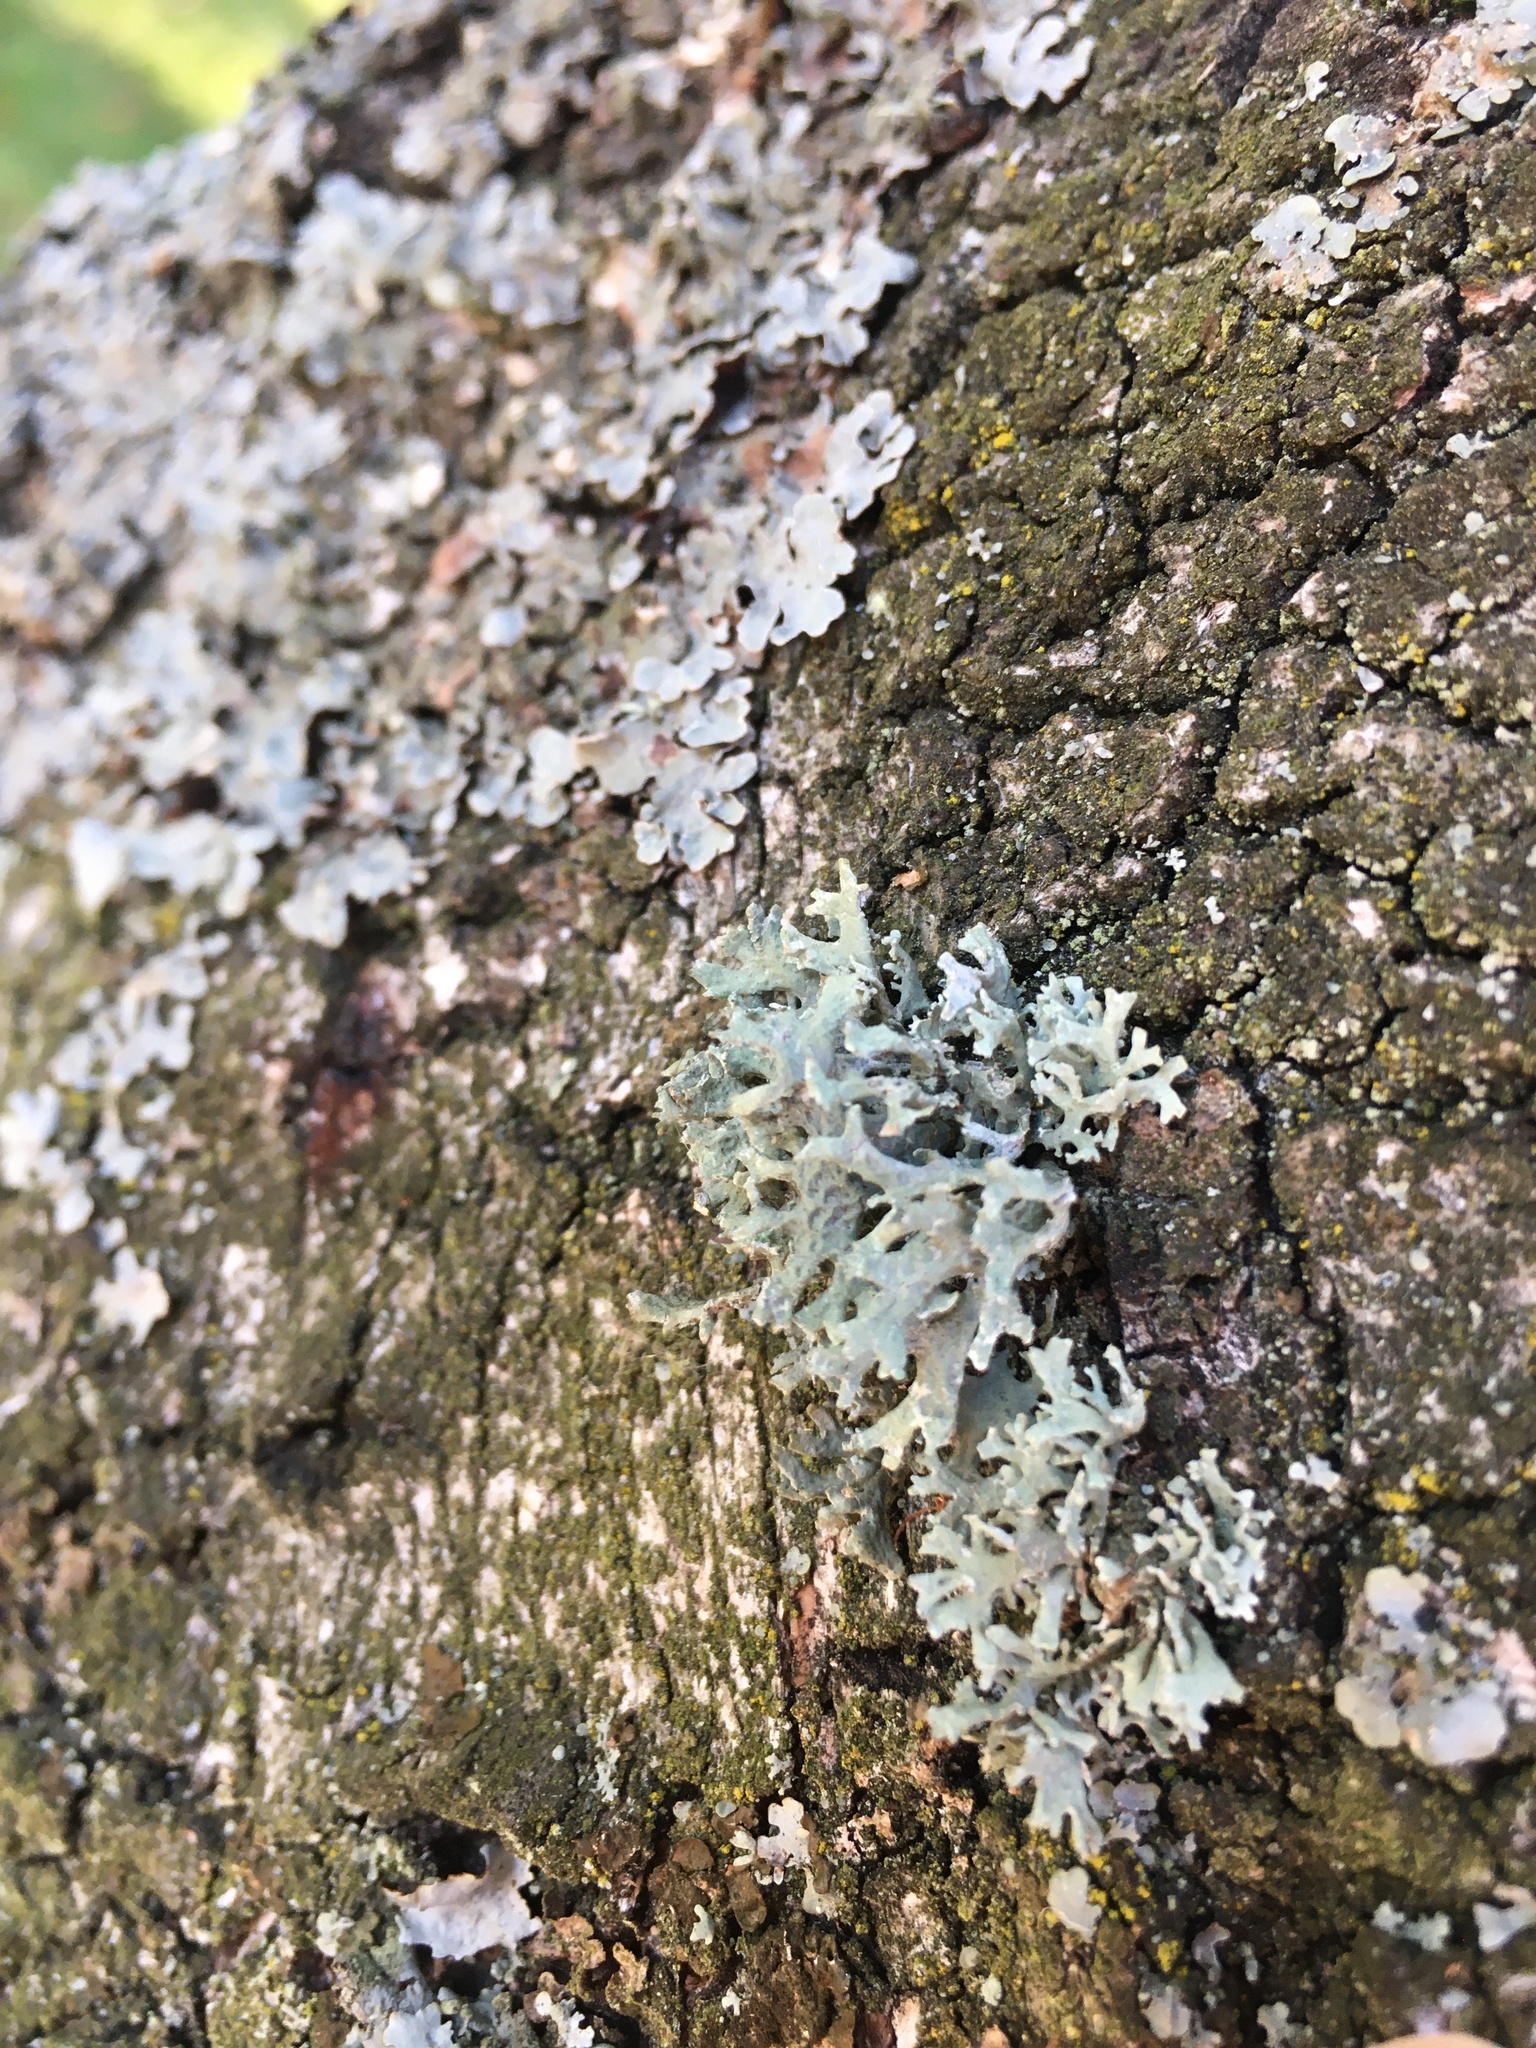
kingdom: Fungi
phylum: Ascomycota
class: Lecanoromycetes
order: Lecanorales
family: Parmeliaceae
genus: Evernia
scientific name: Evernia prunastri
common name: Oak moss
